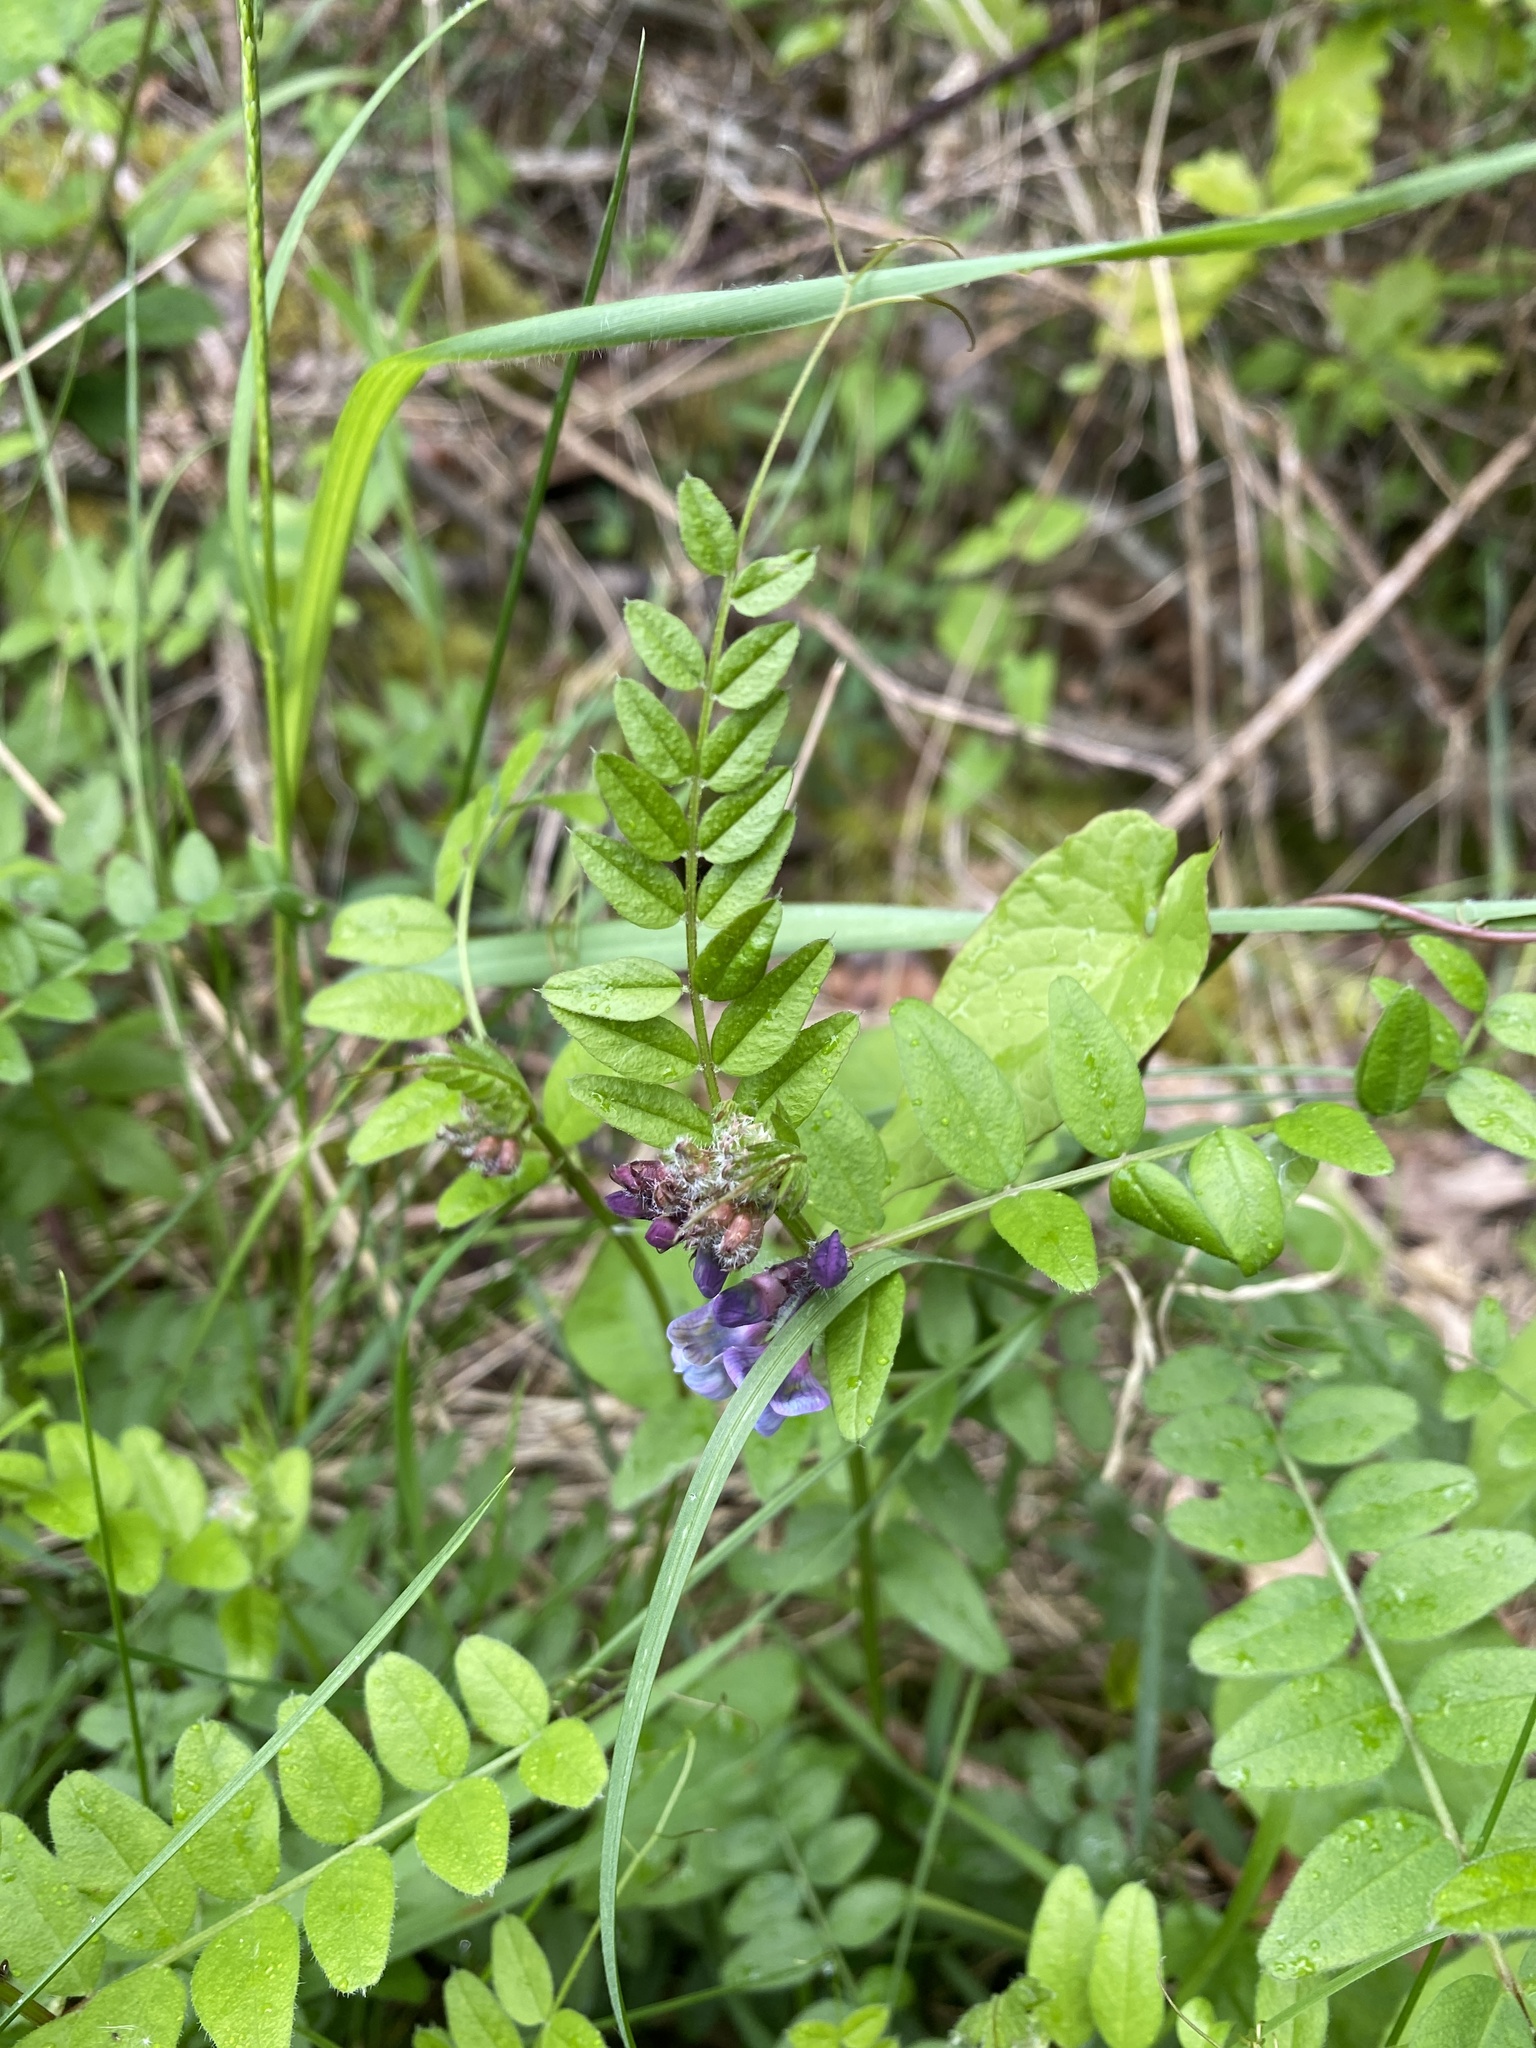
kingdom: Plantae
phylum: Tracheophyta
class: Magnoliopsida
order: Fabales
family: Fabaceae
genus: Vicia
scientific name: Vicia sepium
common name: Bush vetch
